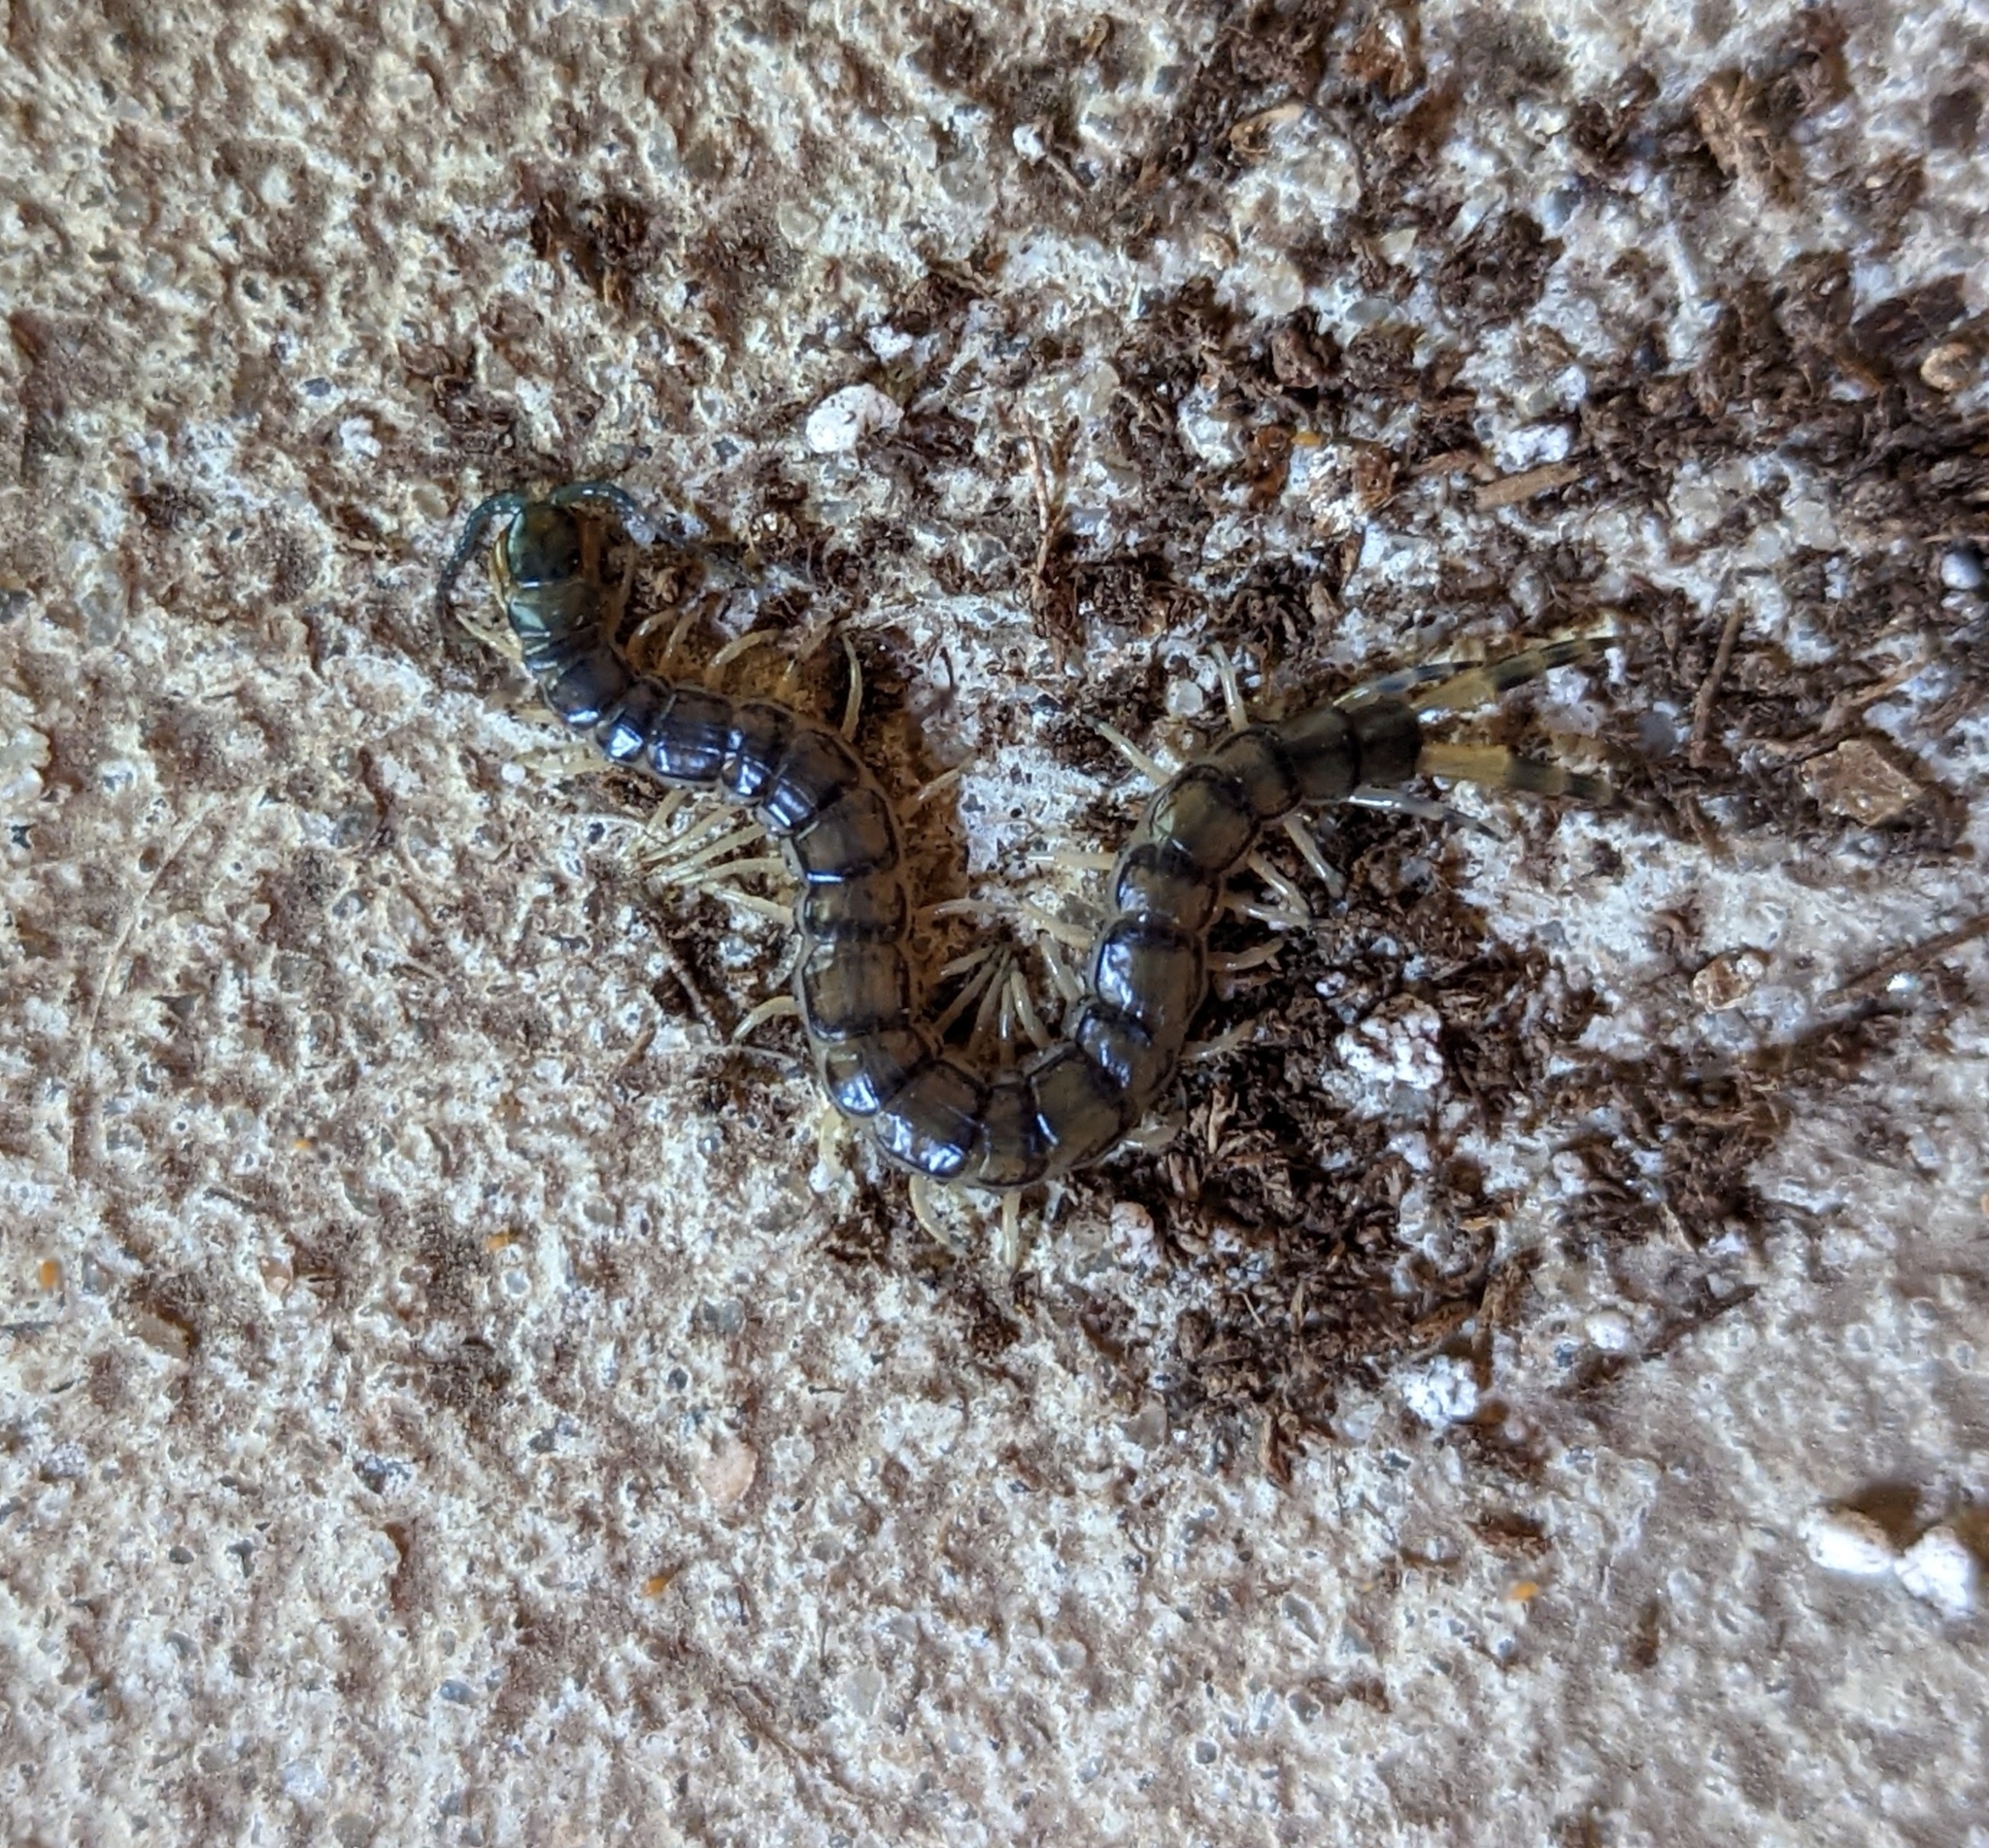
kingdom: Animalia
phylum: Arthropoda
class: Chilopoda
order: Scolopendromorpha
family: Scolopendridae
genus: Hemiscolopendra
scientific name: Hemiscolopendra marginata
